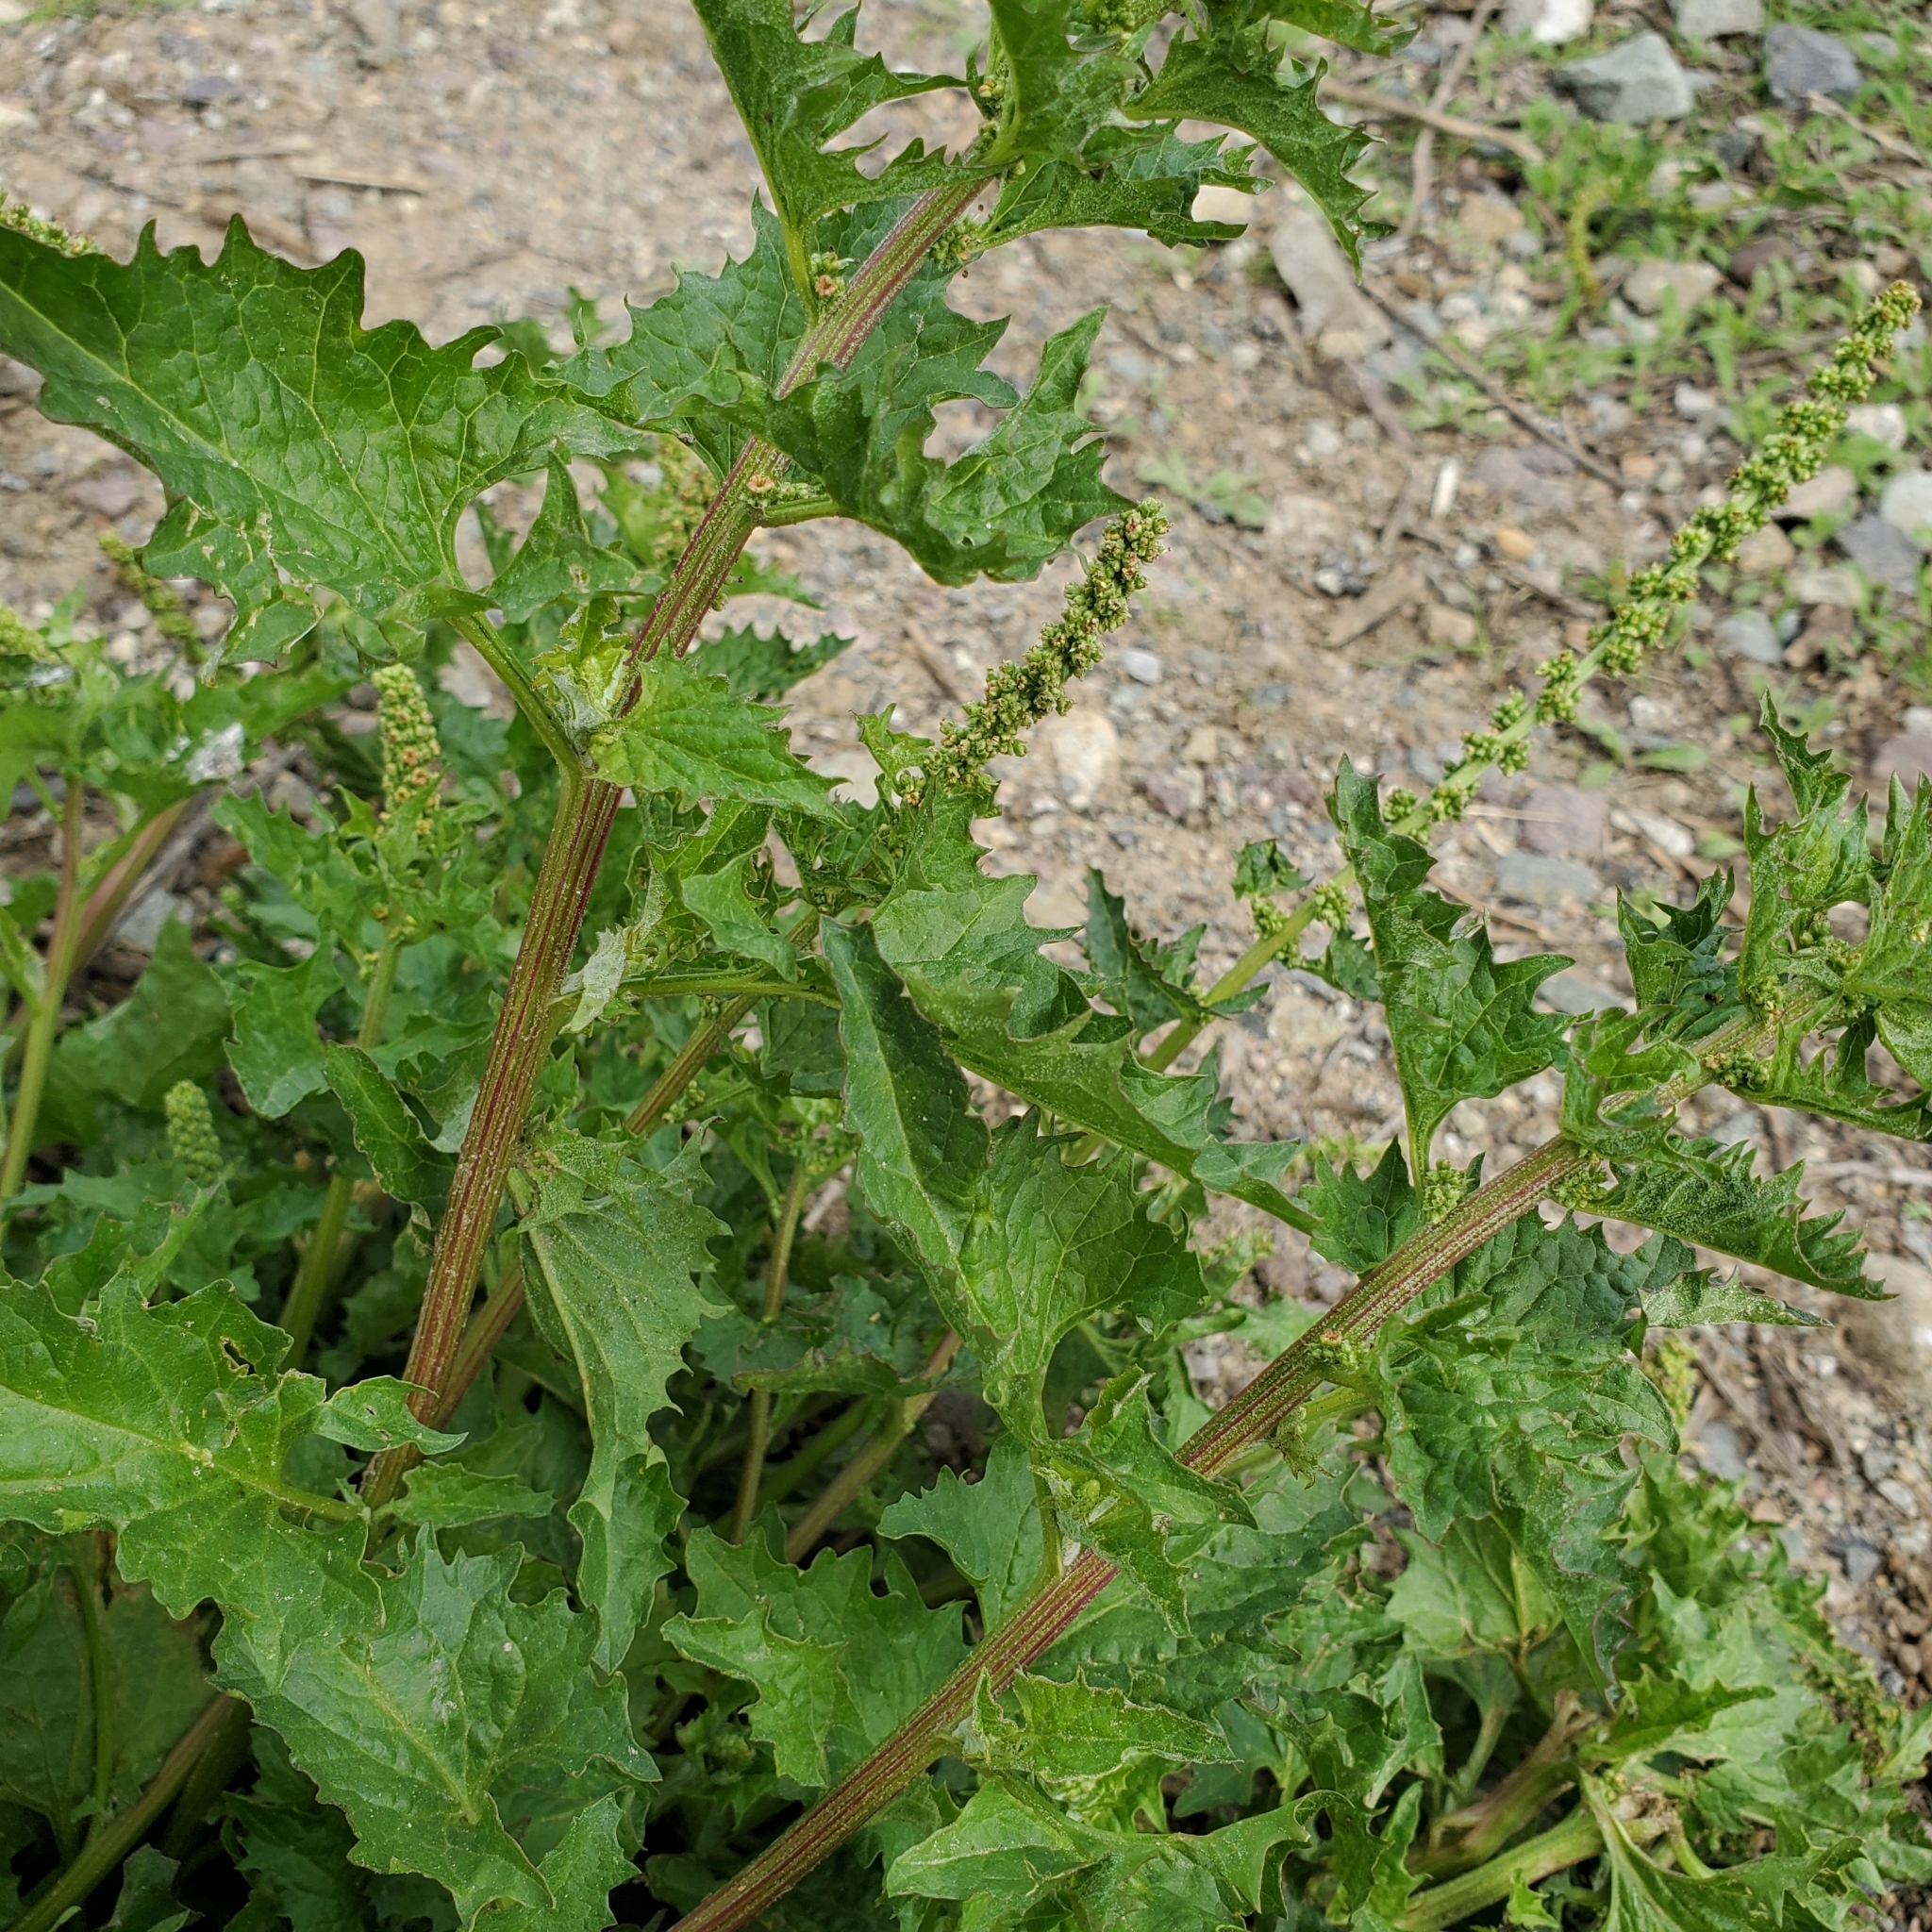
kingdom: Plantae
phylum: Tracheophyta
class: Magnoliopsida
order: Caryophyllales
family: Amaranthaceae
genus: Blitum
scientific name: Blitum californicum
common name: California goosefoot
